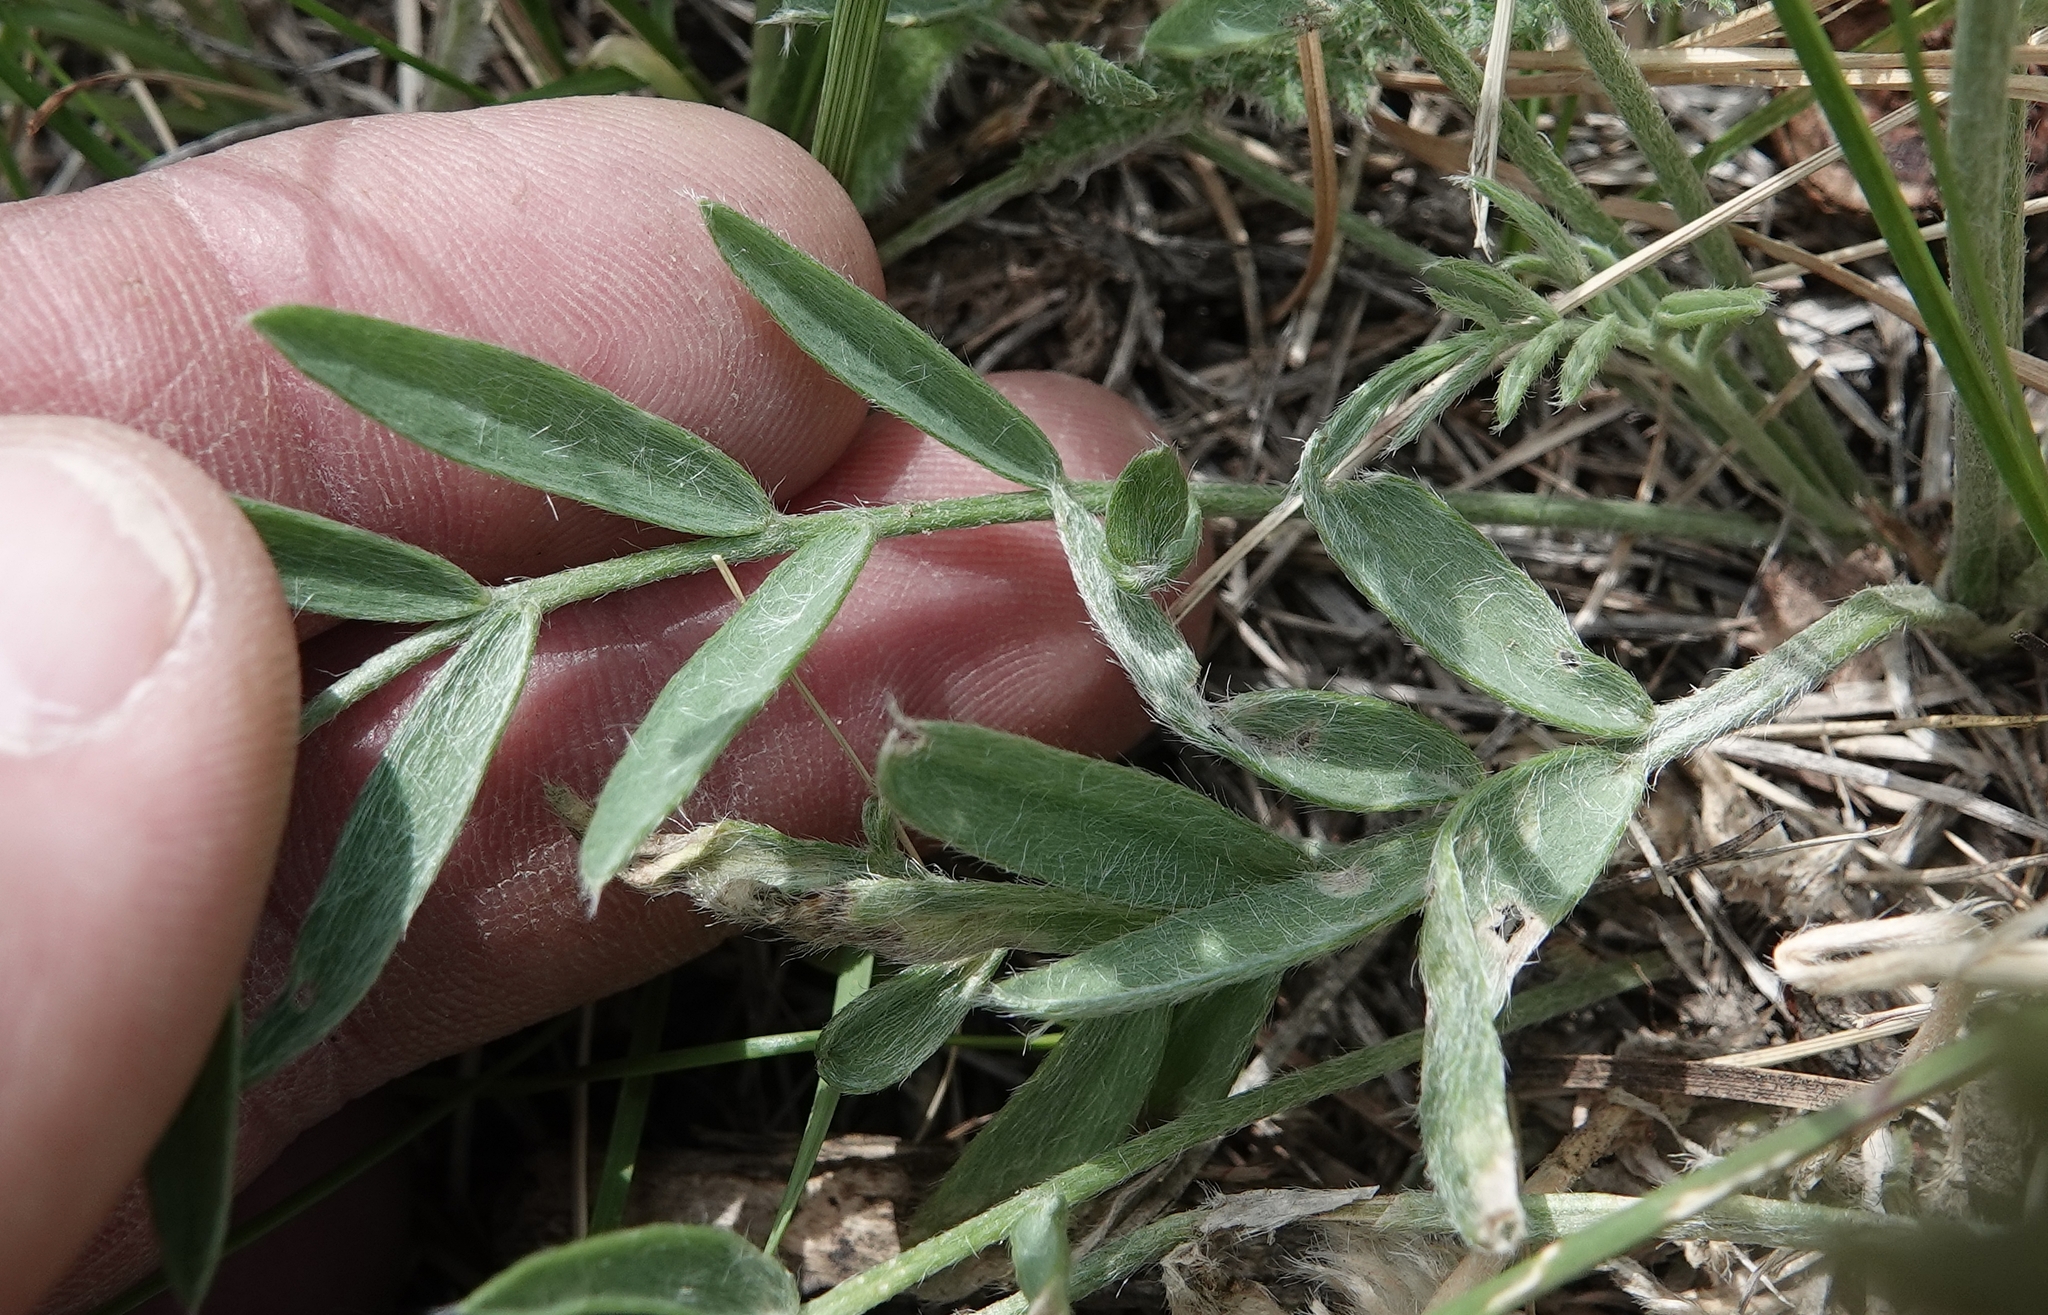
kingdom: Plantae
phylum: Tracheophyta
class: Magnoliopsida
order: Fabales
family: Fabaceae
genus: Oxytropis
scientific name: Oxytropis lambertii
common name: Purple locoweed
